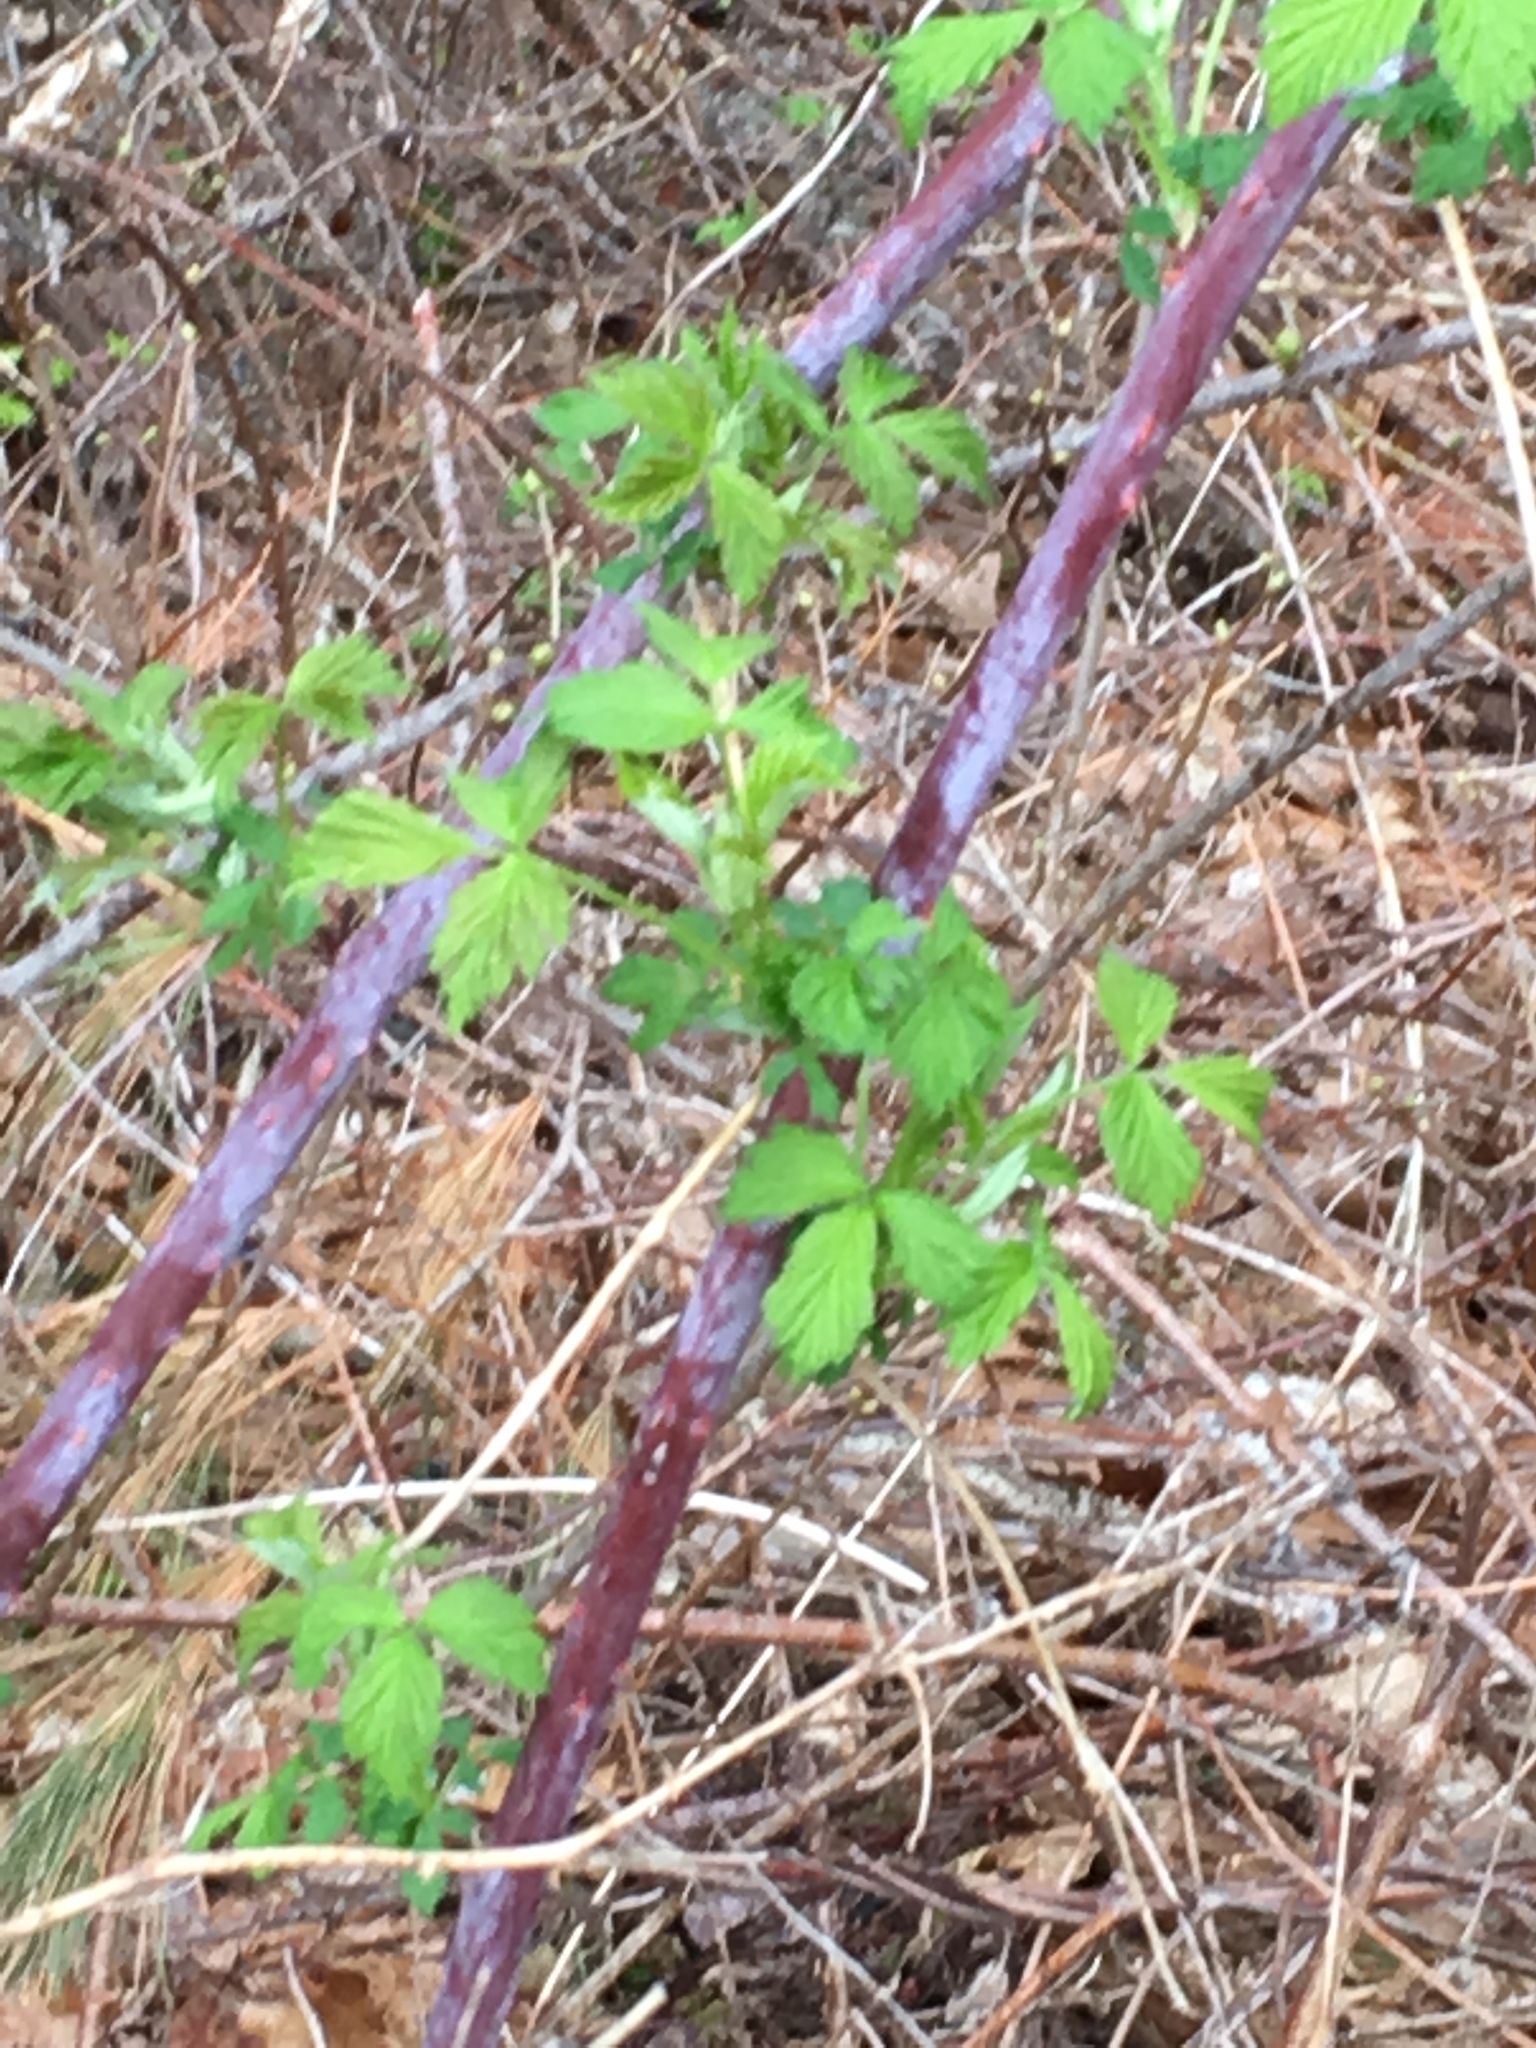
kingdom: Plantae
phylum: Tracheophyta
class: Magnoliopsida
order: Rosales
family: Rosaceae
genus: Rubus
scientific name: Rubus occidentalis
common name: Black raspberry
